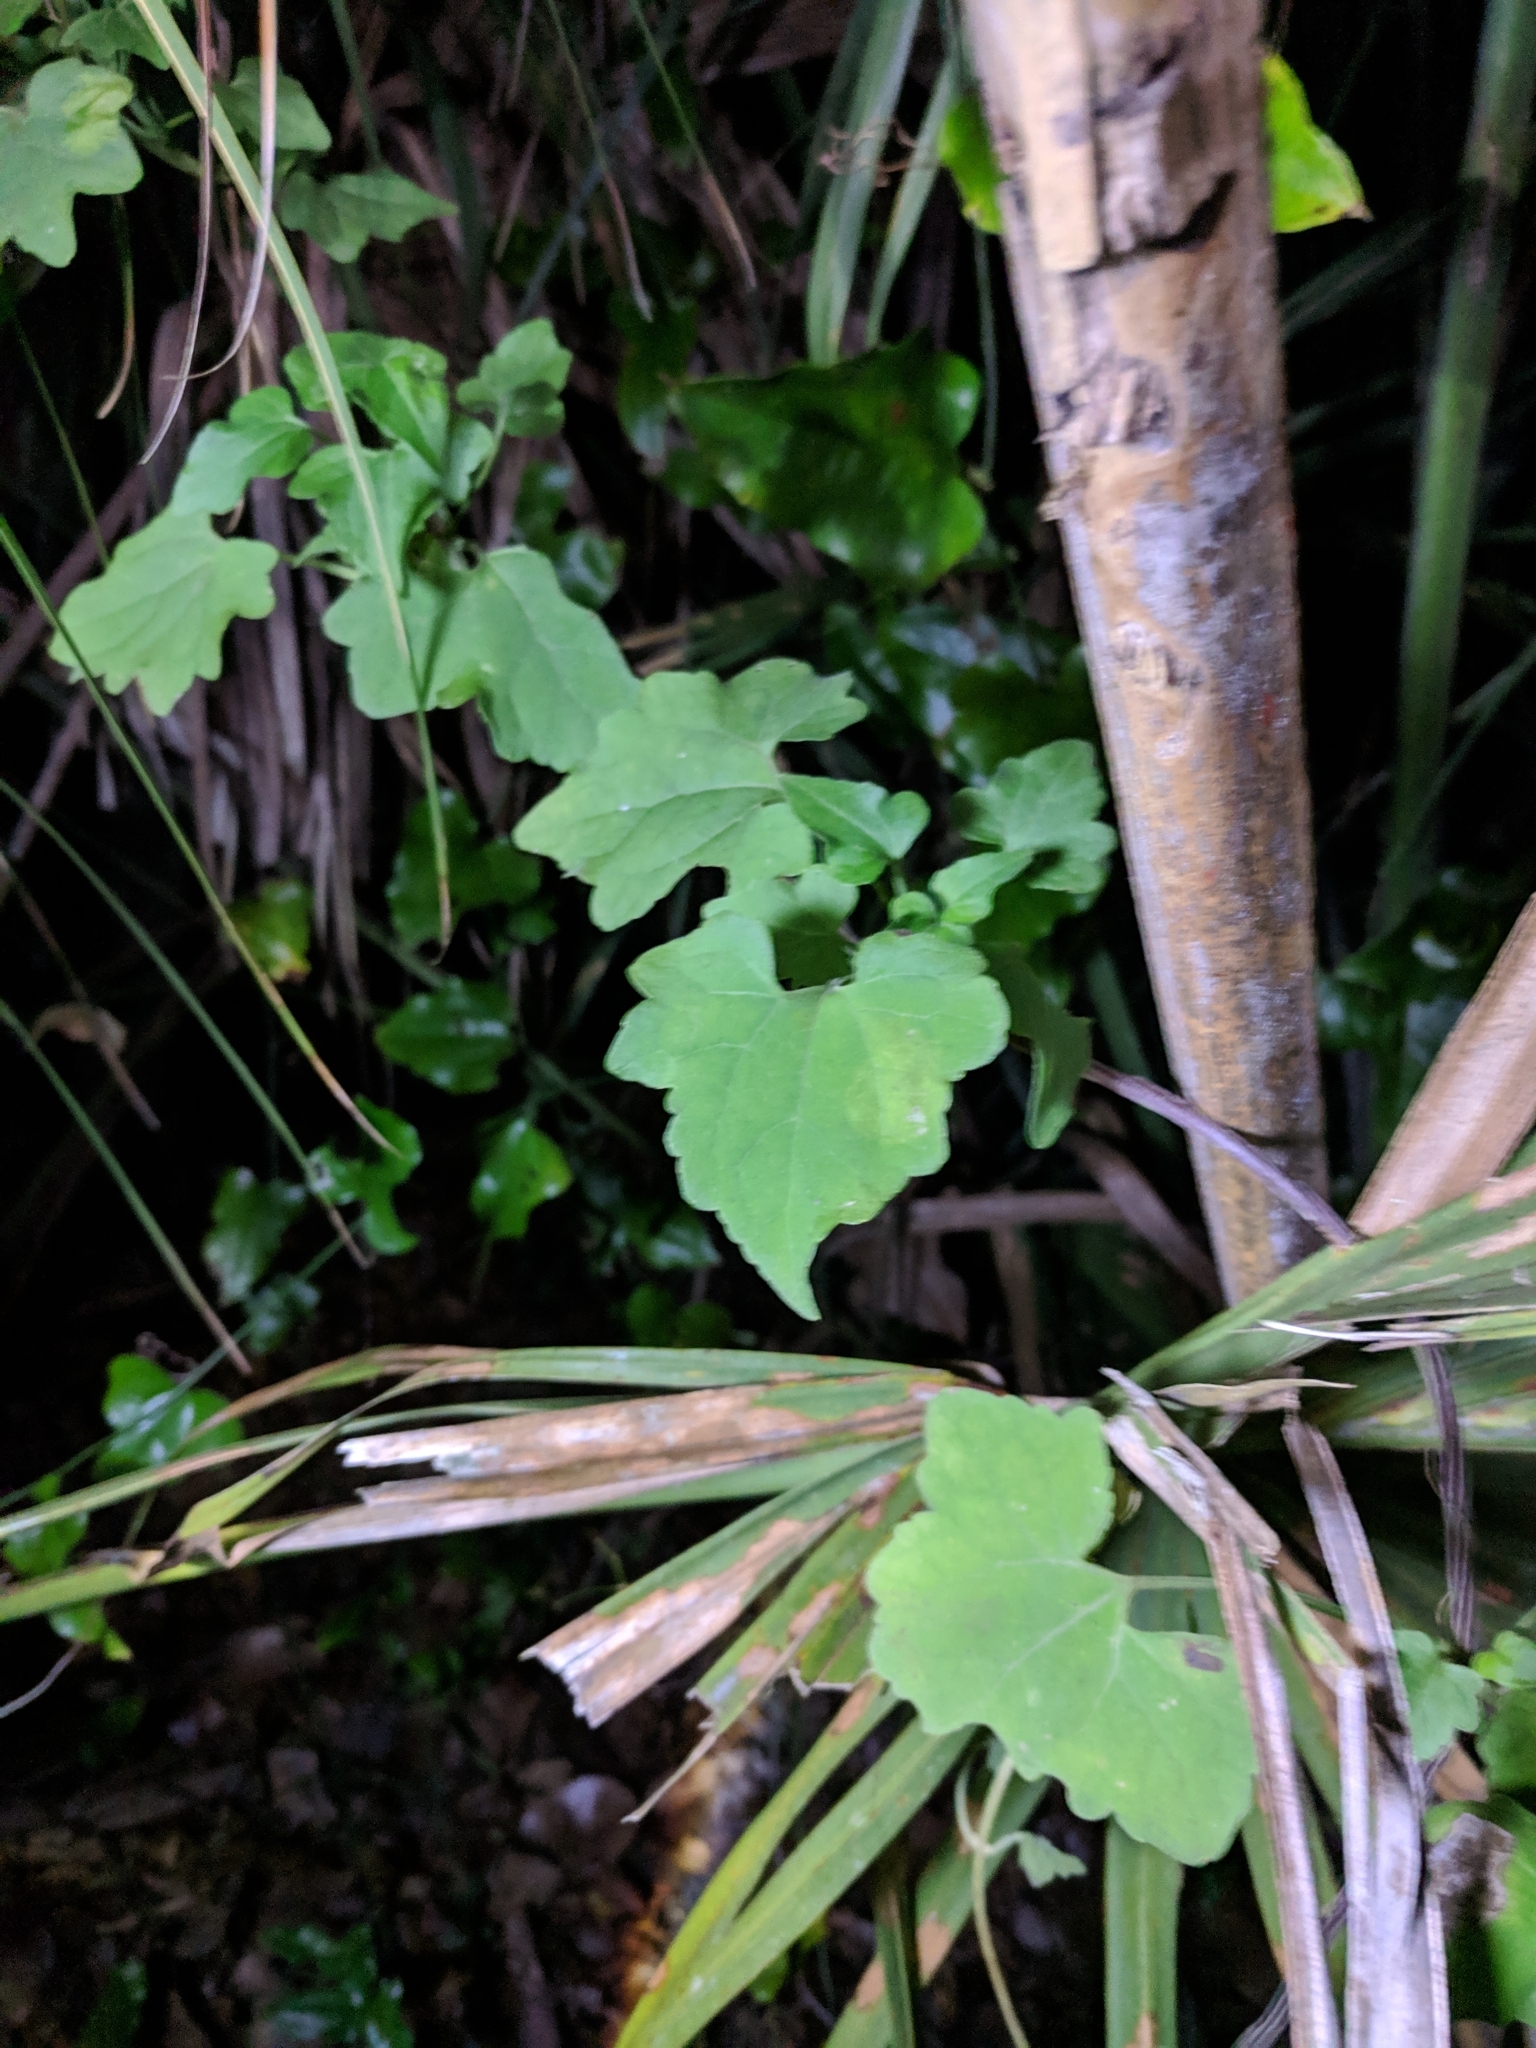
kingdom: Plantae
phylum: Tracheophyta
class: Magnoliopsida
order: Asterales
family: Asteraceae
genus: Mikania
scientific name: Mikania cordifolia
